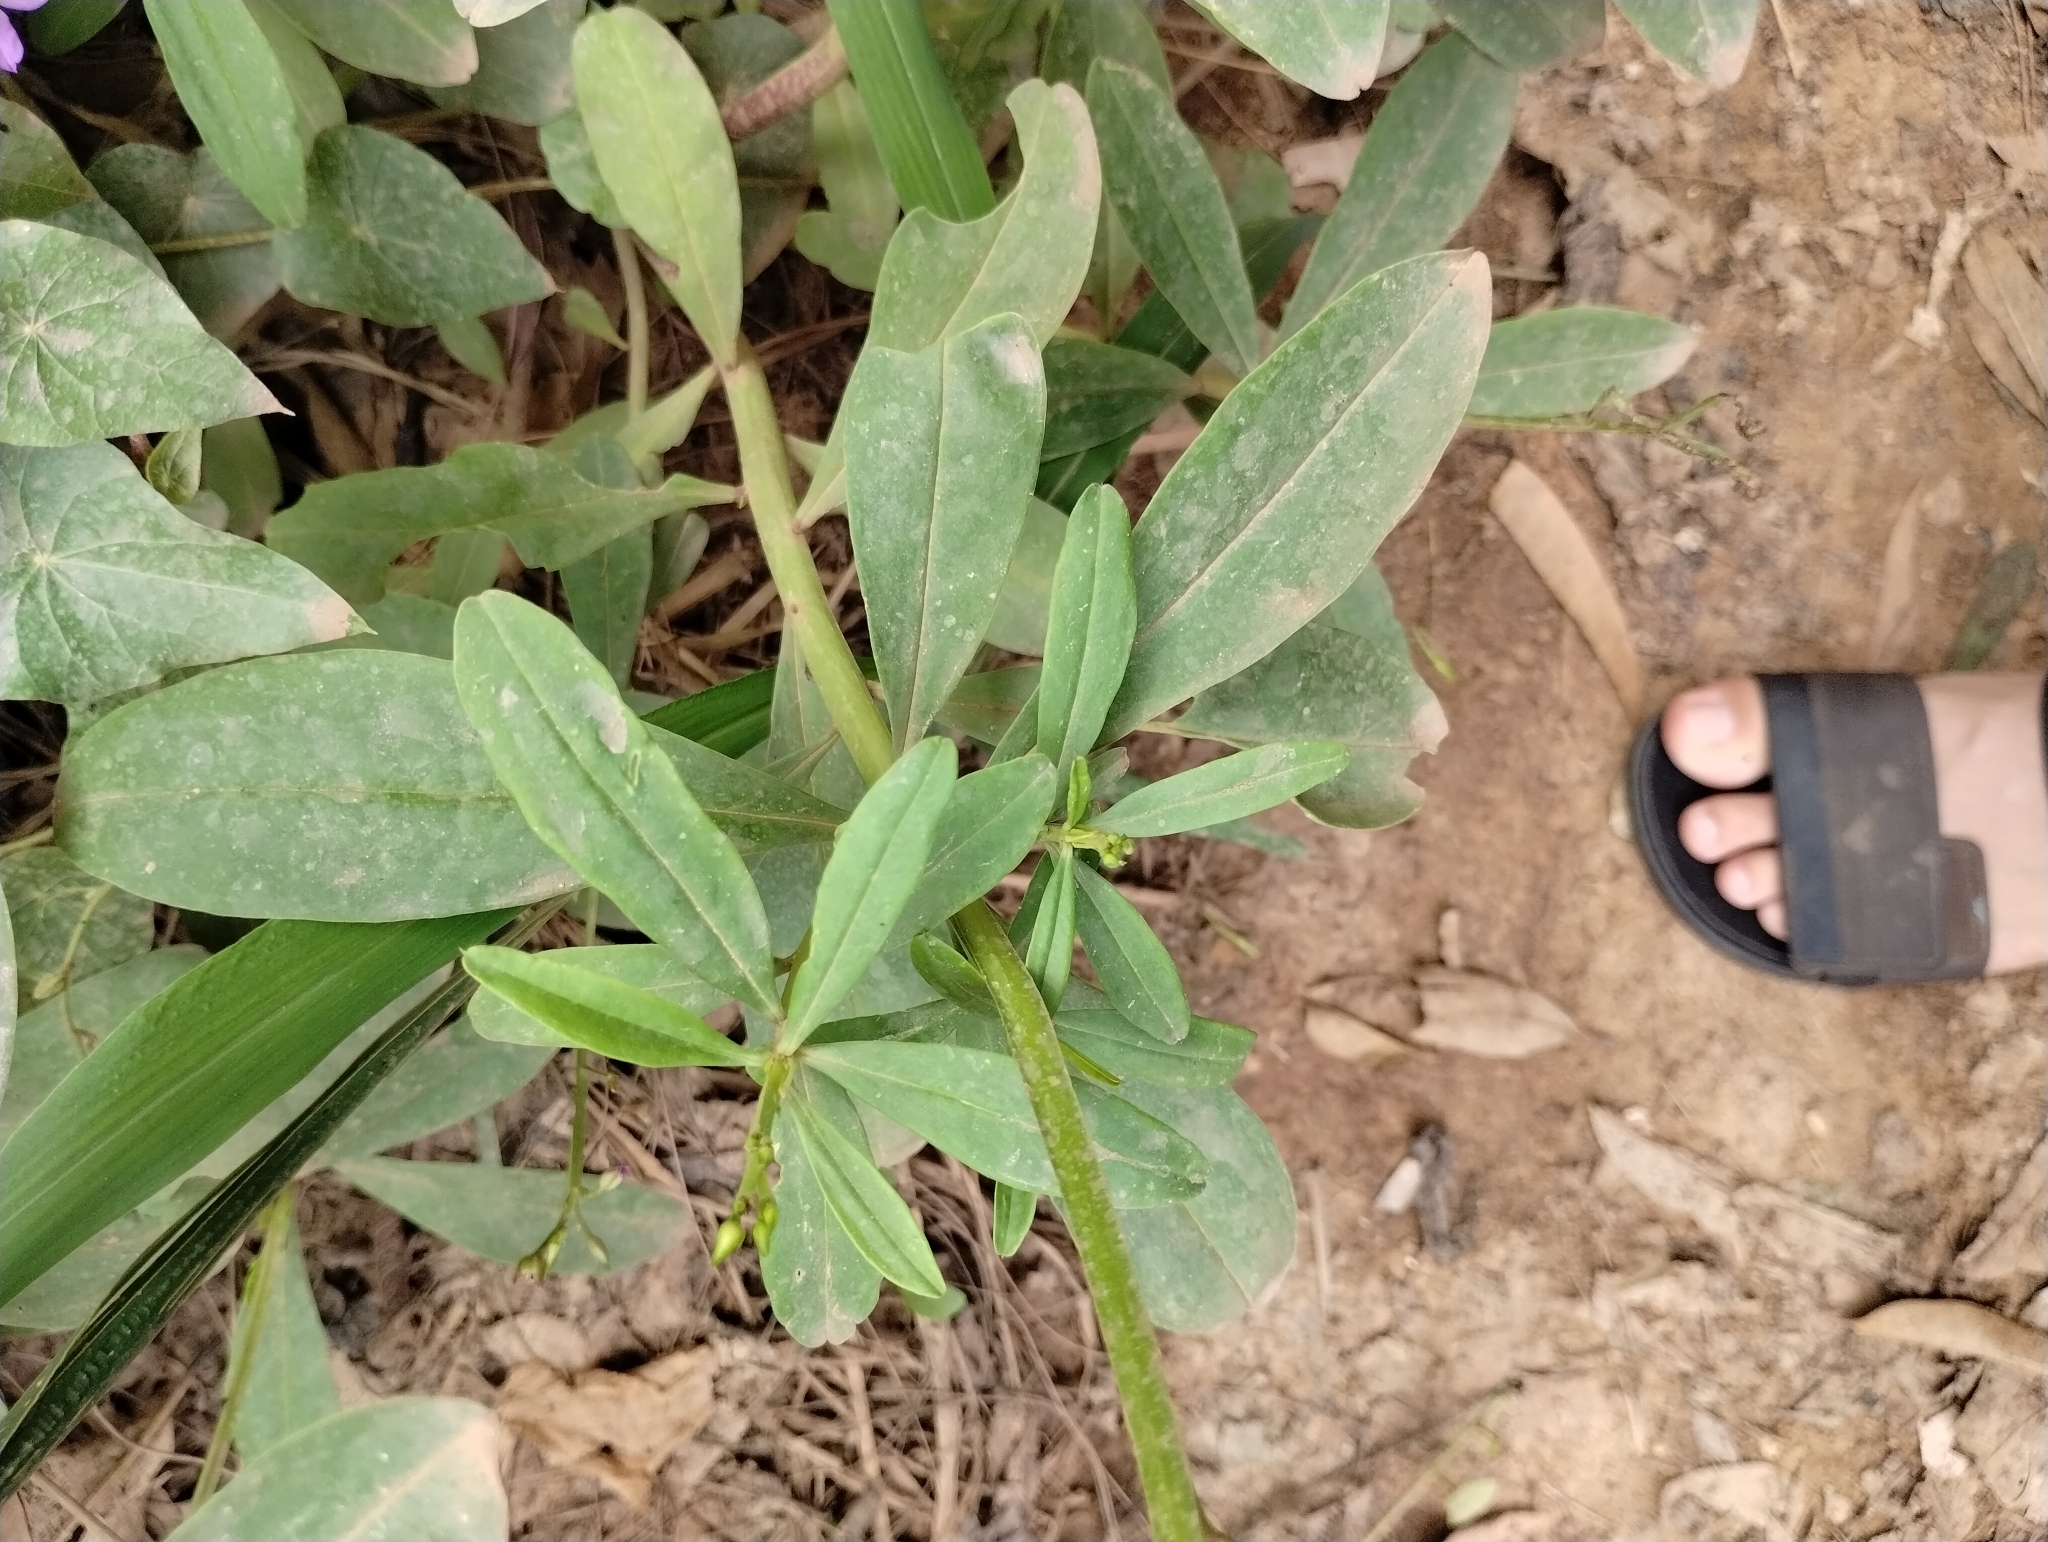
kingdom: Plantae
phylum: Tracheophyta
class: Magnoliopsida
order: Caryophyllales
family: Talinaceae
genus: Talinum
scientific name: Talinum fruticosum
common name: Verdolaga-francesa
